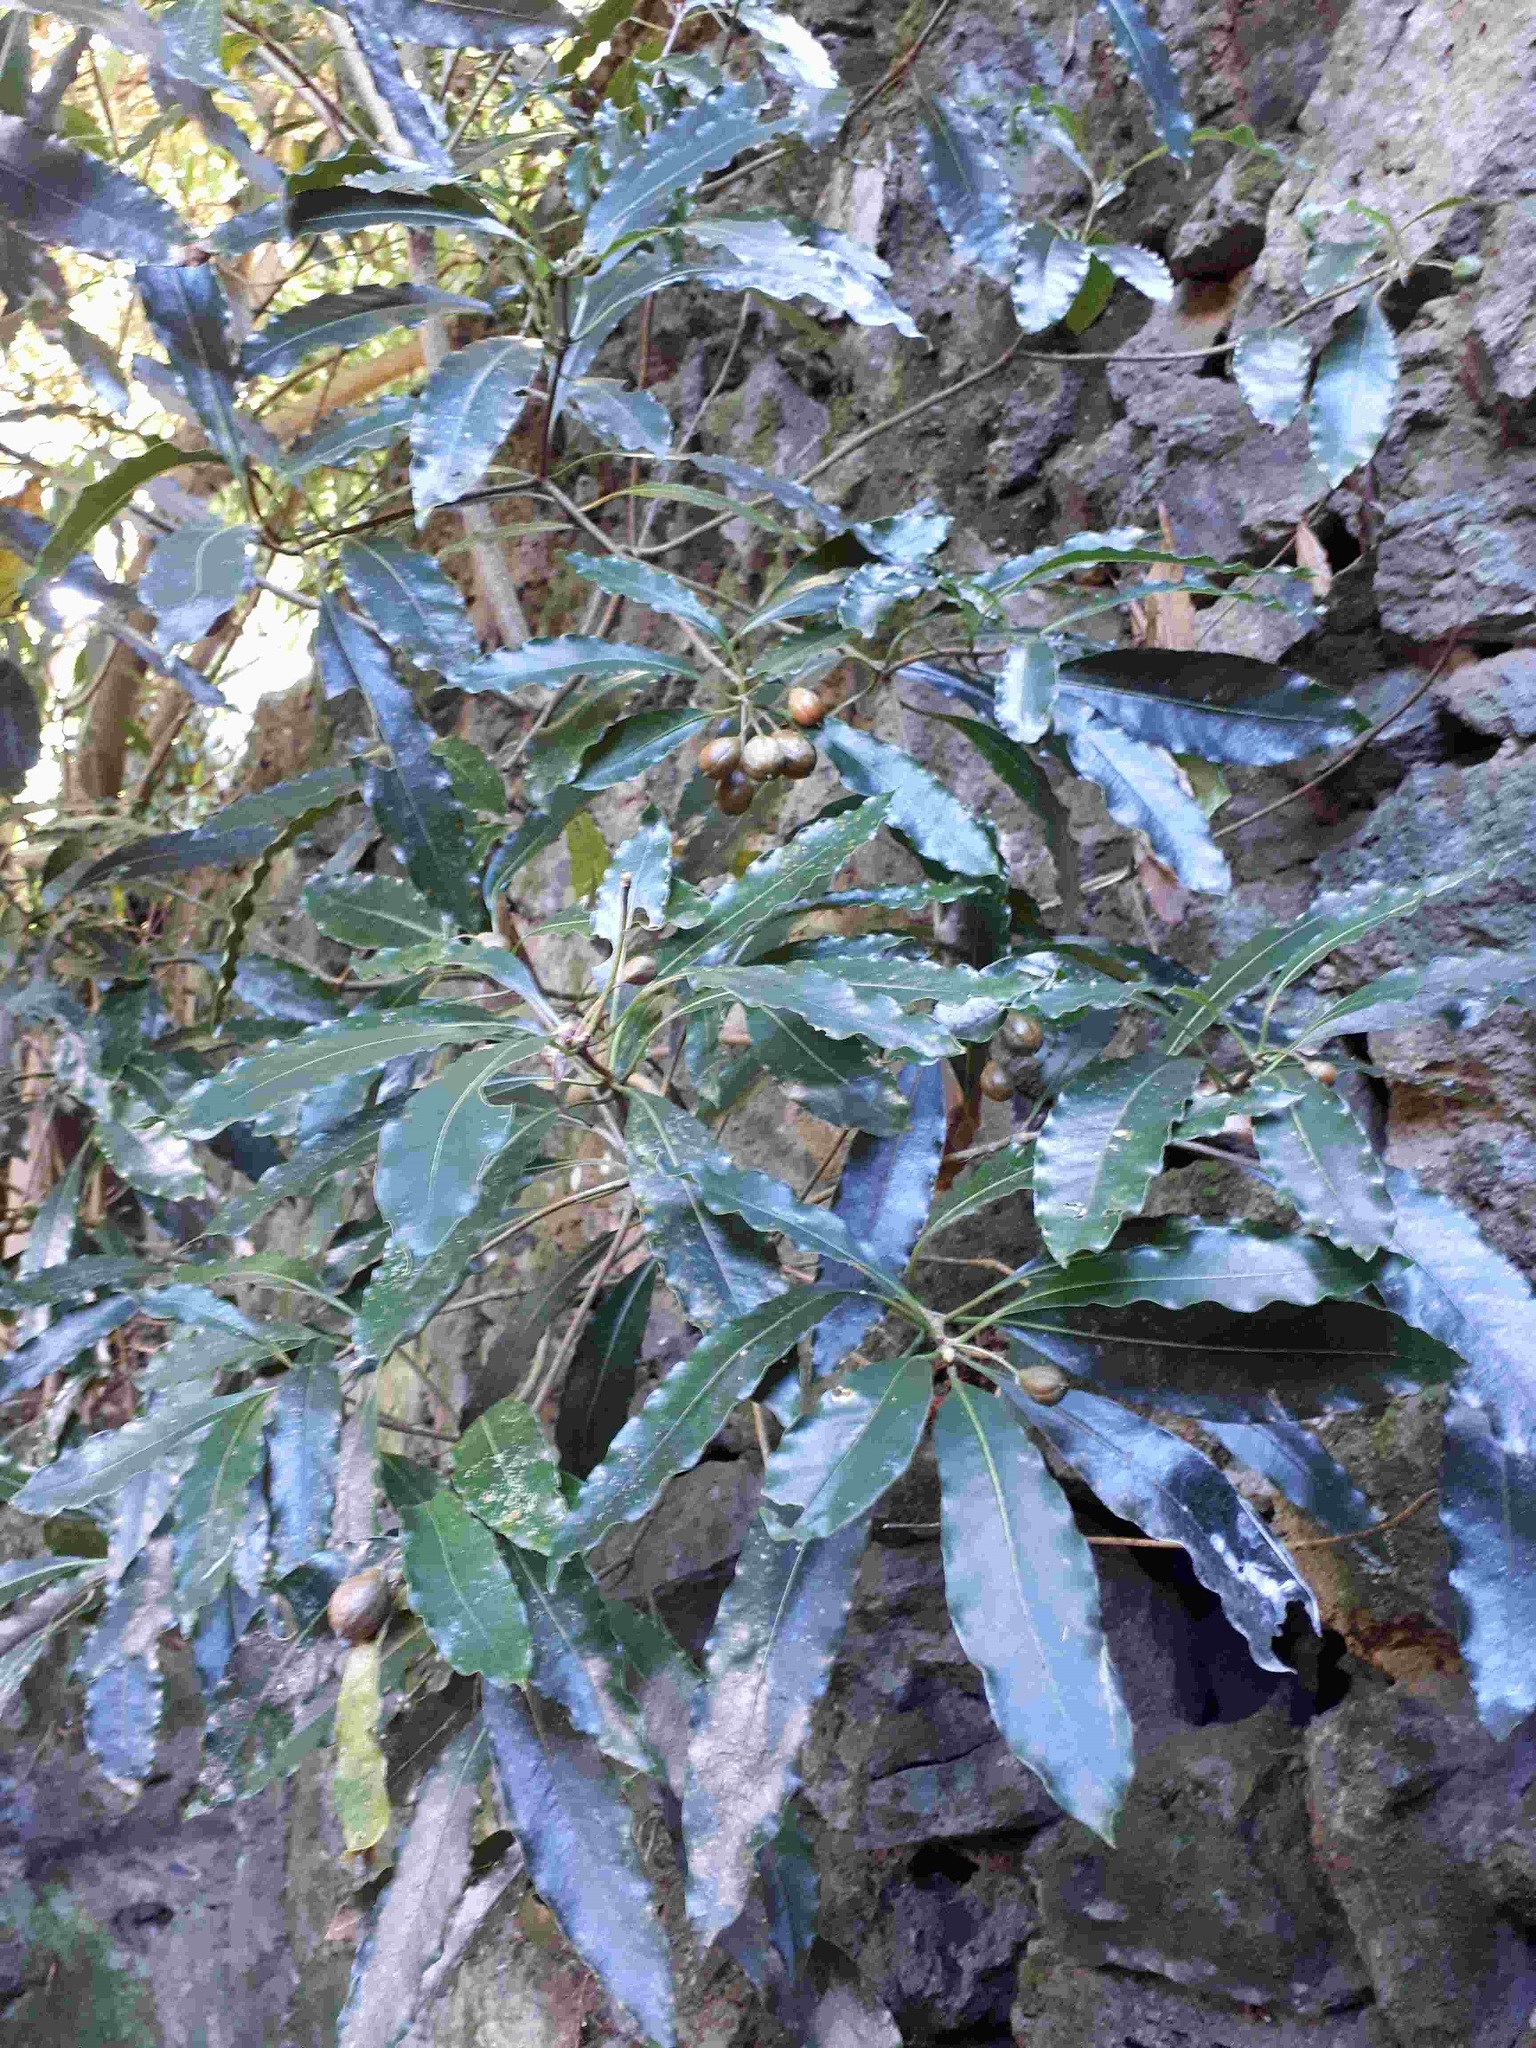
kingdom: Plantae
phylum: Tracheophyta
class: Magnoliopsida
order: Apiales
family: Pittosporaceae
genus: Pittosporum
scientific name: Pittosporum undulatum
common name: Australian cheesewood
